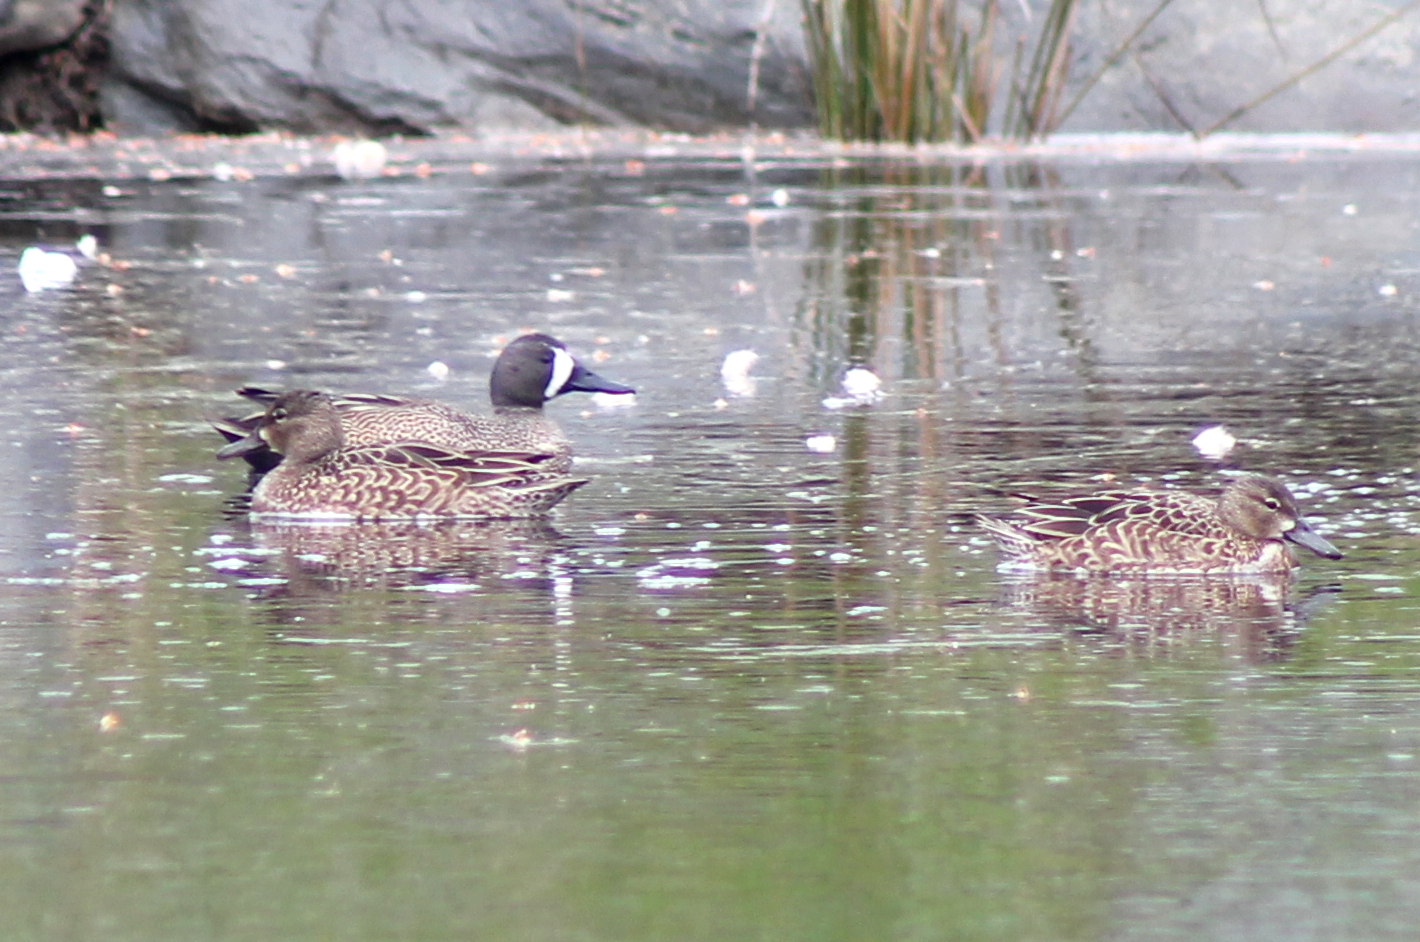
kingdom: Animalia
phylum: Chordata
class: Aves
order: Anseriformes
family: Anatidae
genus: Spatula
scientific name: Spatula discors
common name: Blue-winged teal
